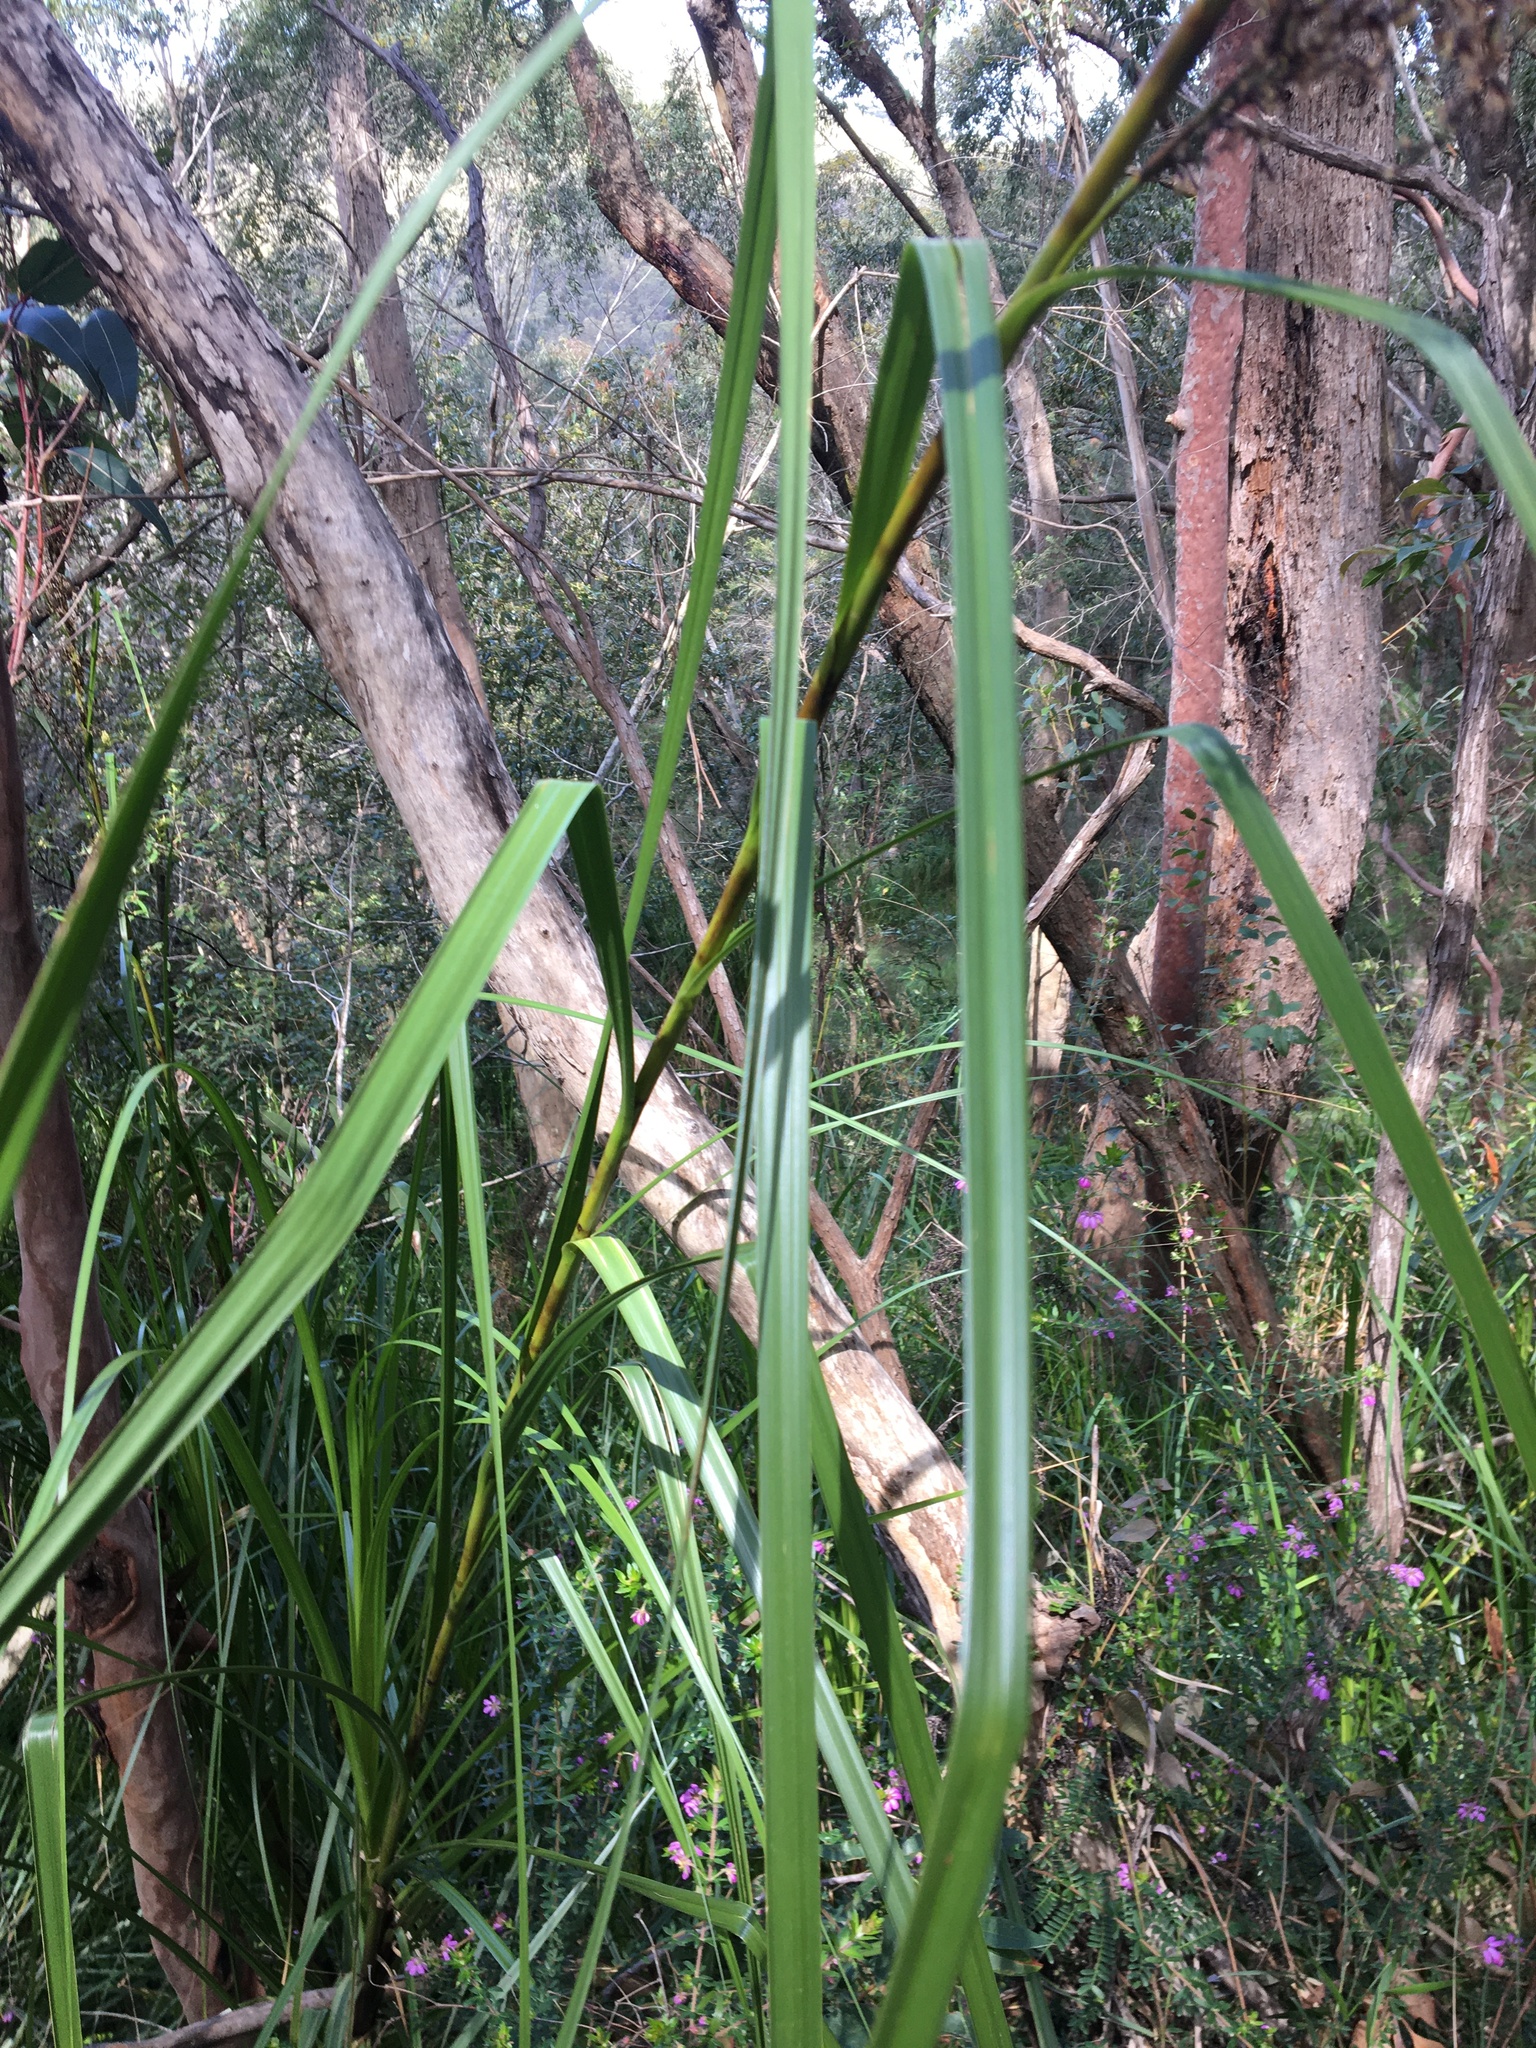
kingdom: Plantae
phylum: Tracheophyta
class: Liliopsida
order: Poales
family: Cyperaceae
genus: Gahnia
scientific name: Gahnia clarkei
